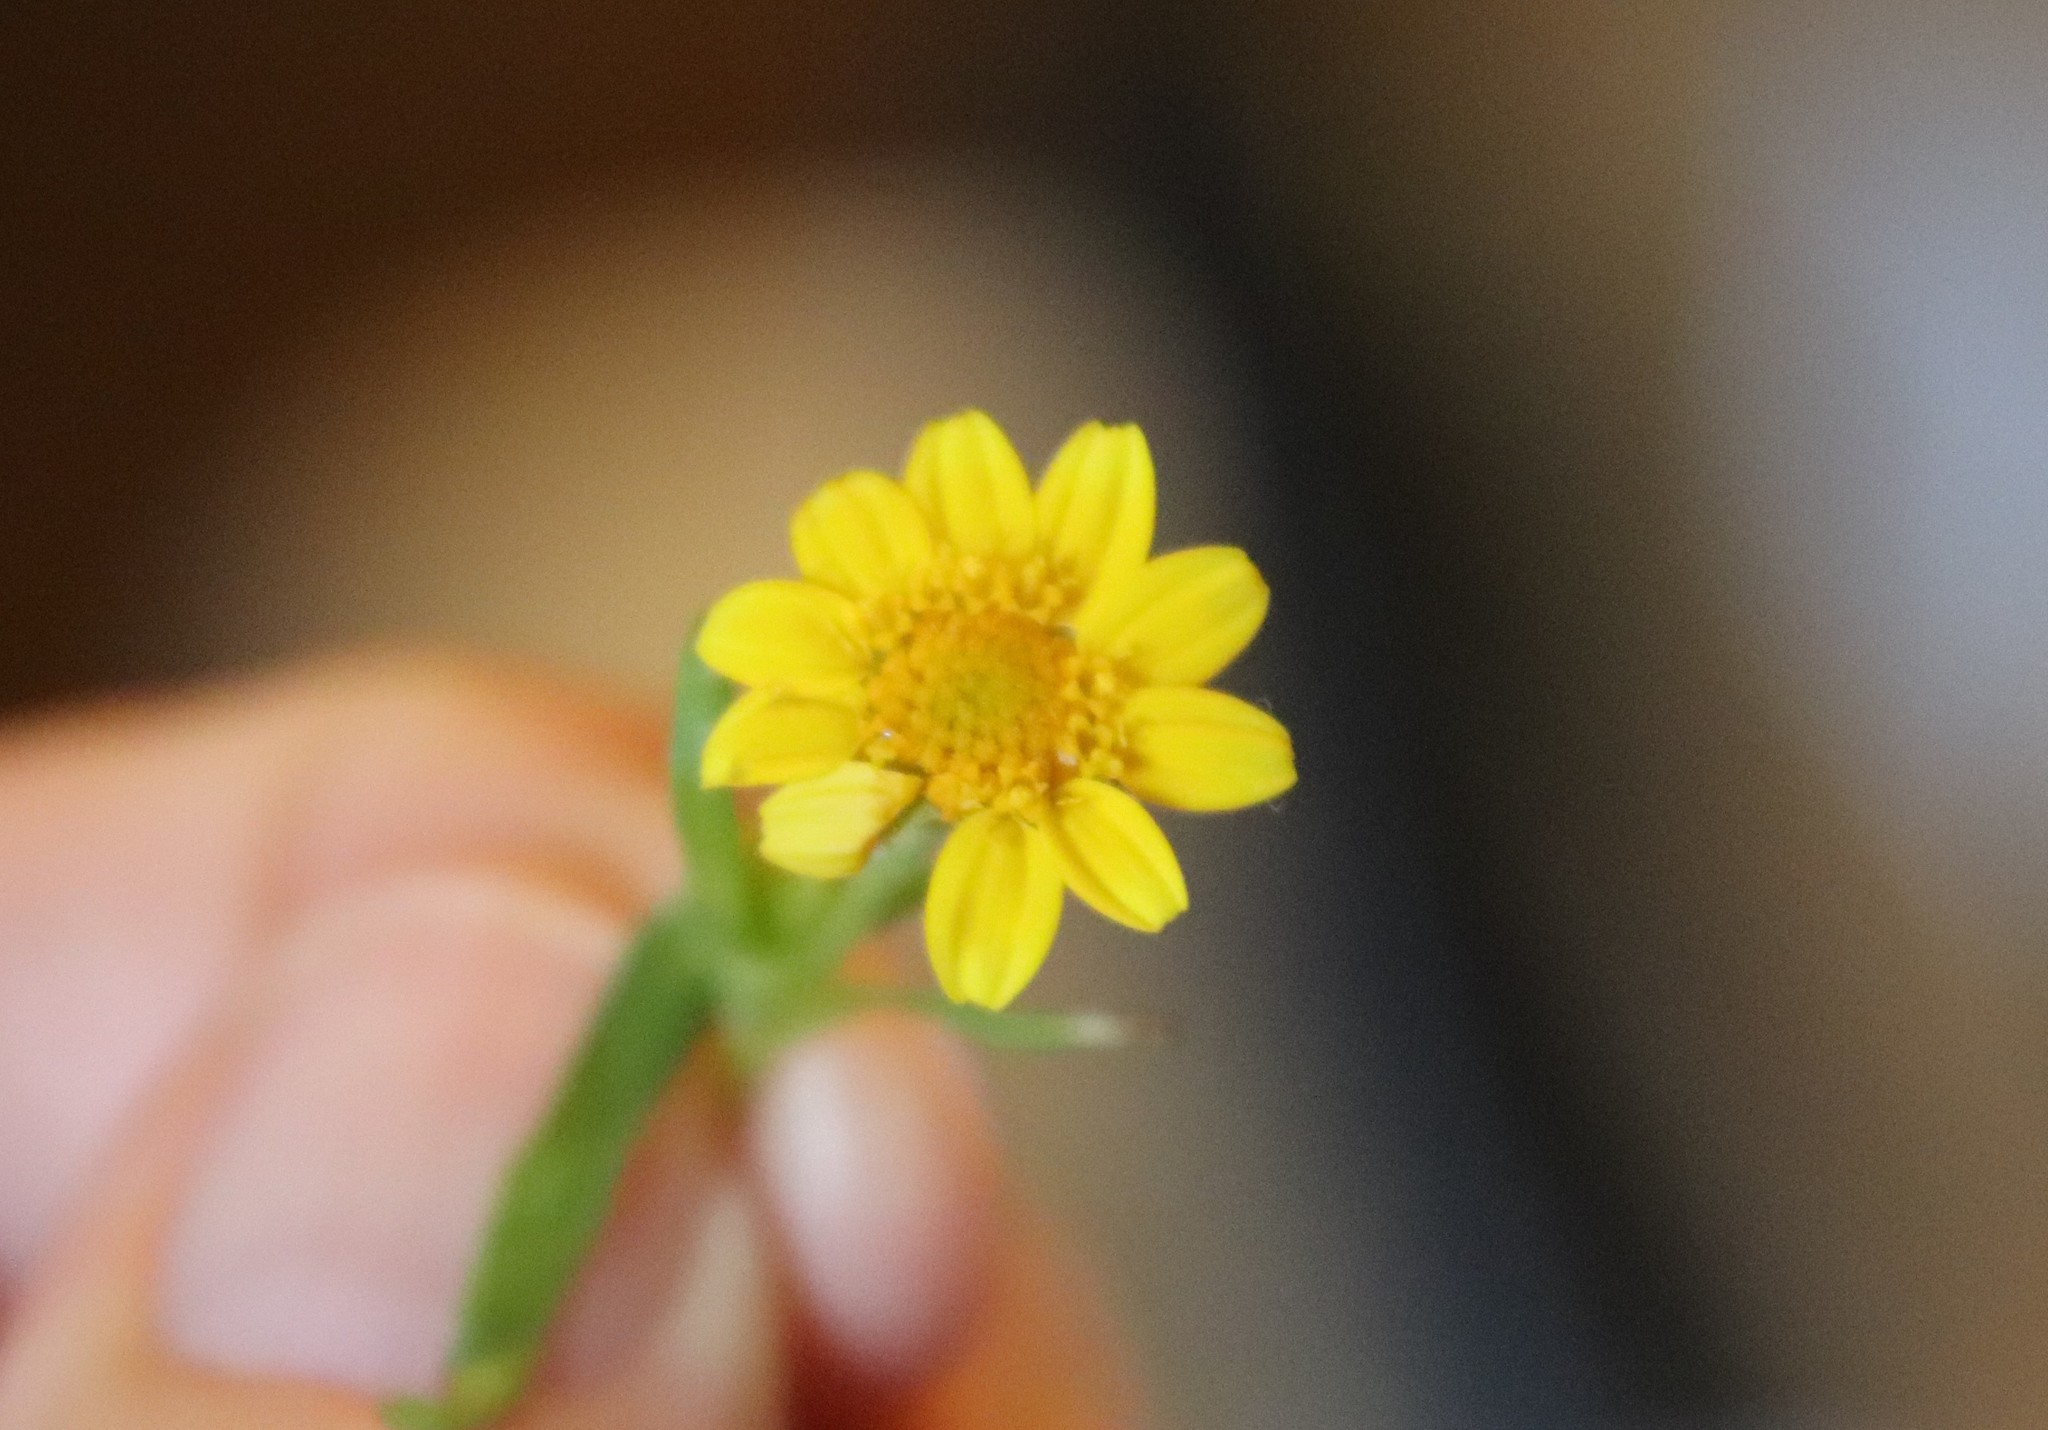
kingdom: Plantae
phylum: Tracheophyta
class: Magnoliopsida
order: Asterales
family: Asteraceae
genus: Lasthenia
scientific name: Lasthenia glabrata
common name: Yellow-ray lasthenia
